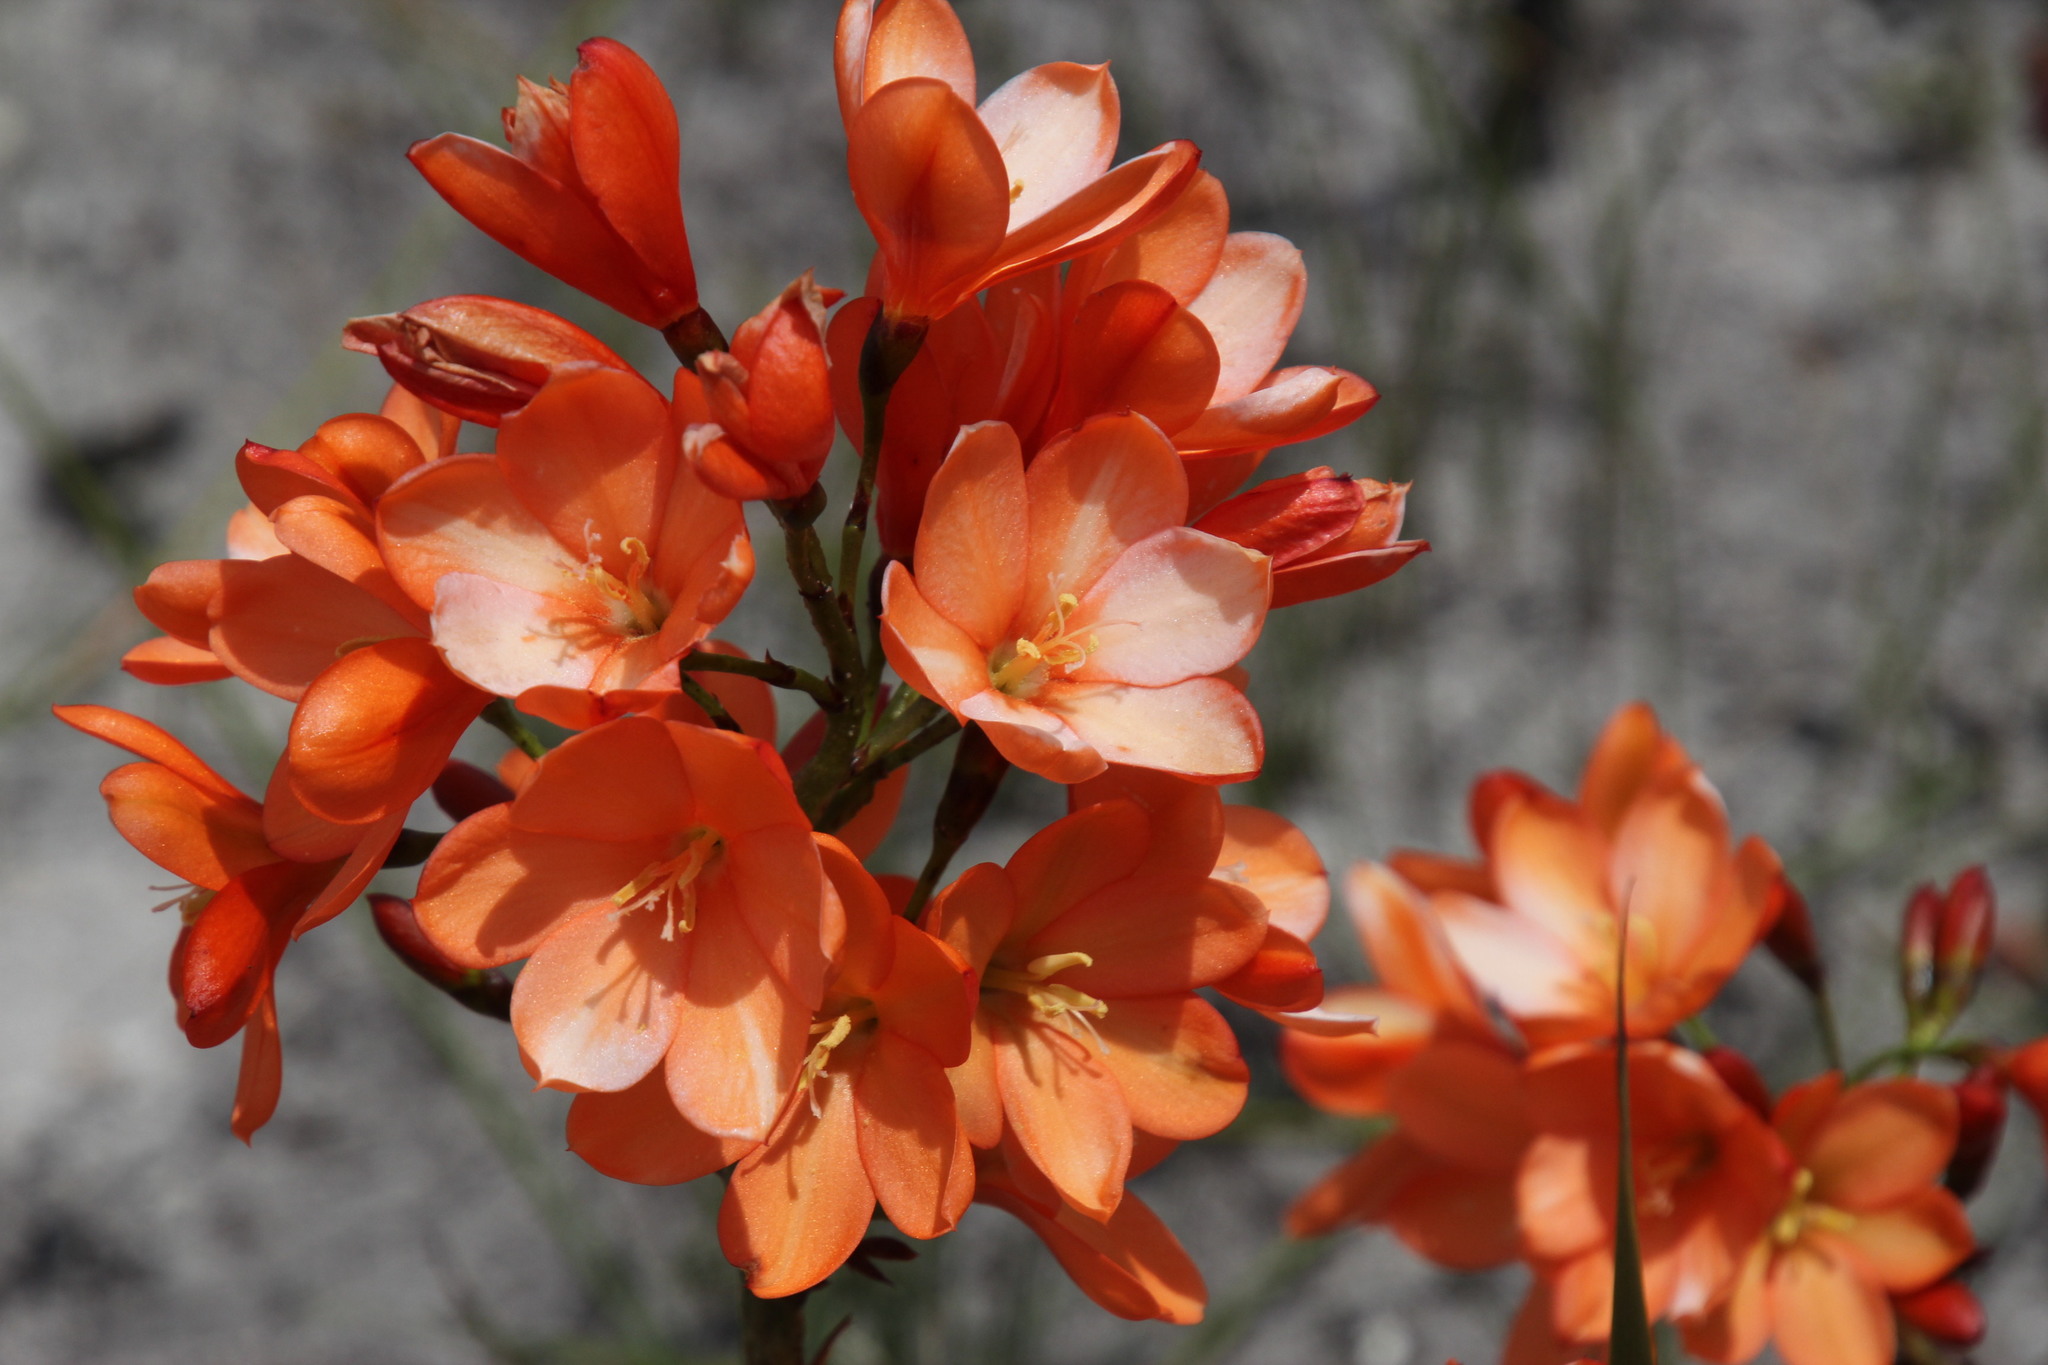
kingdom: Plantae
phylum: Tracheophyta
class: Liliopsida
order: Asparagales
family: Iridaceae
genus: Pillansia
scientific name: Pillansia templemannii
